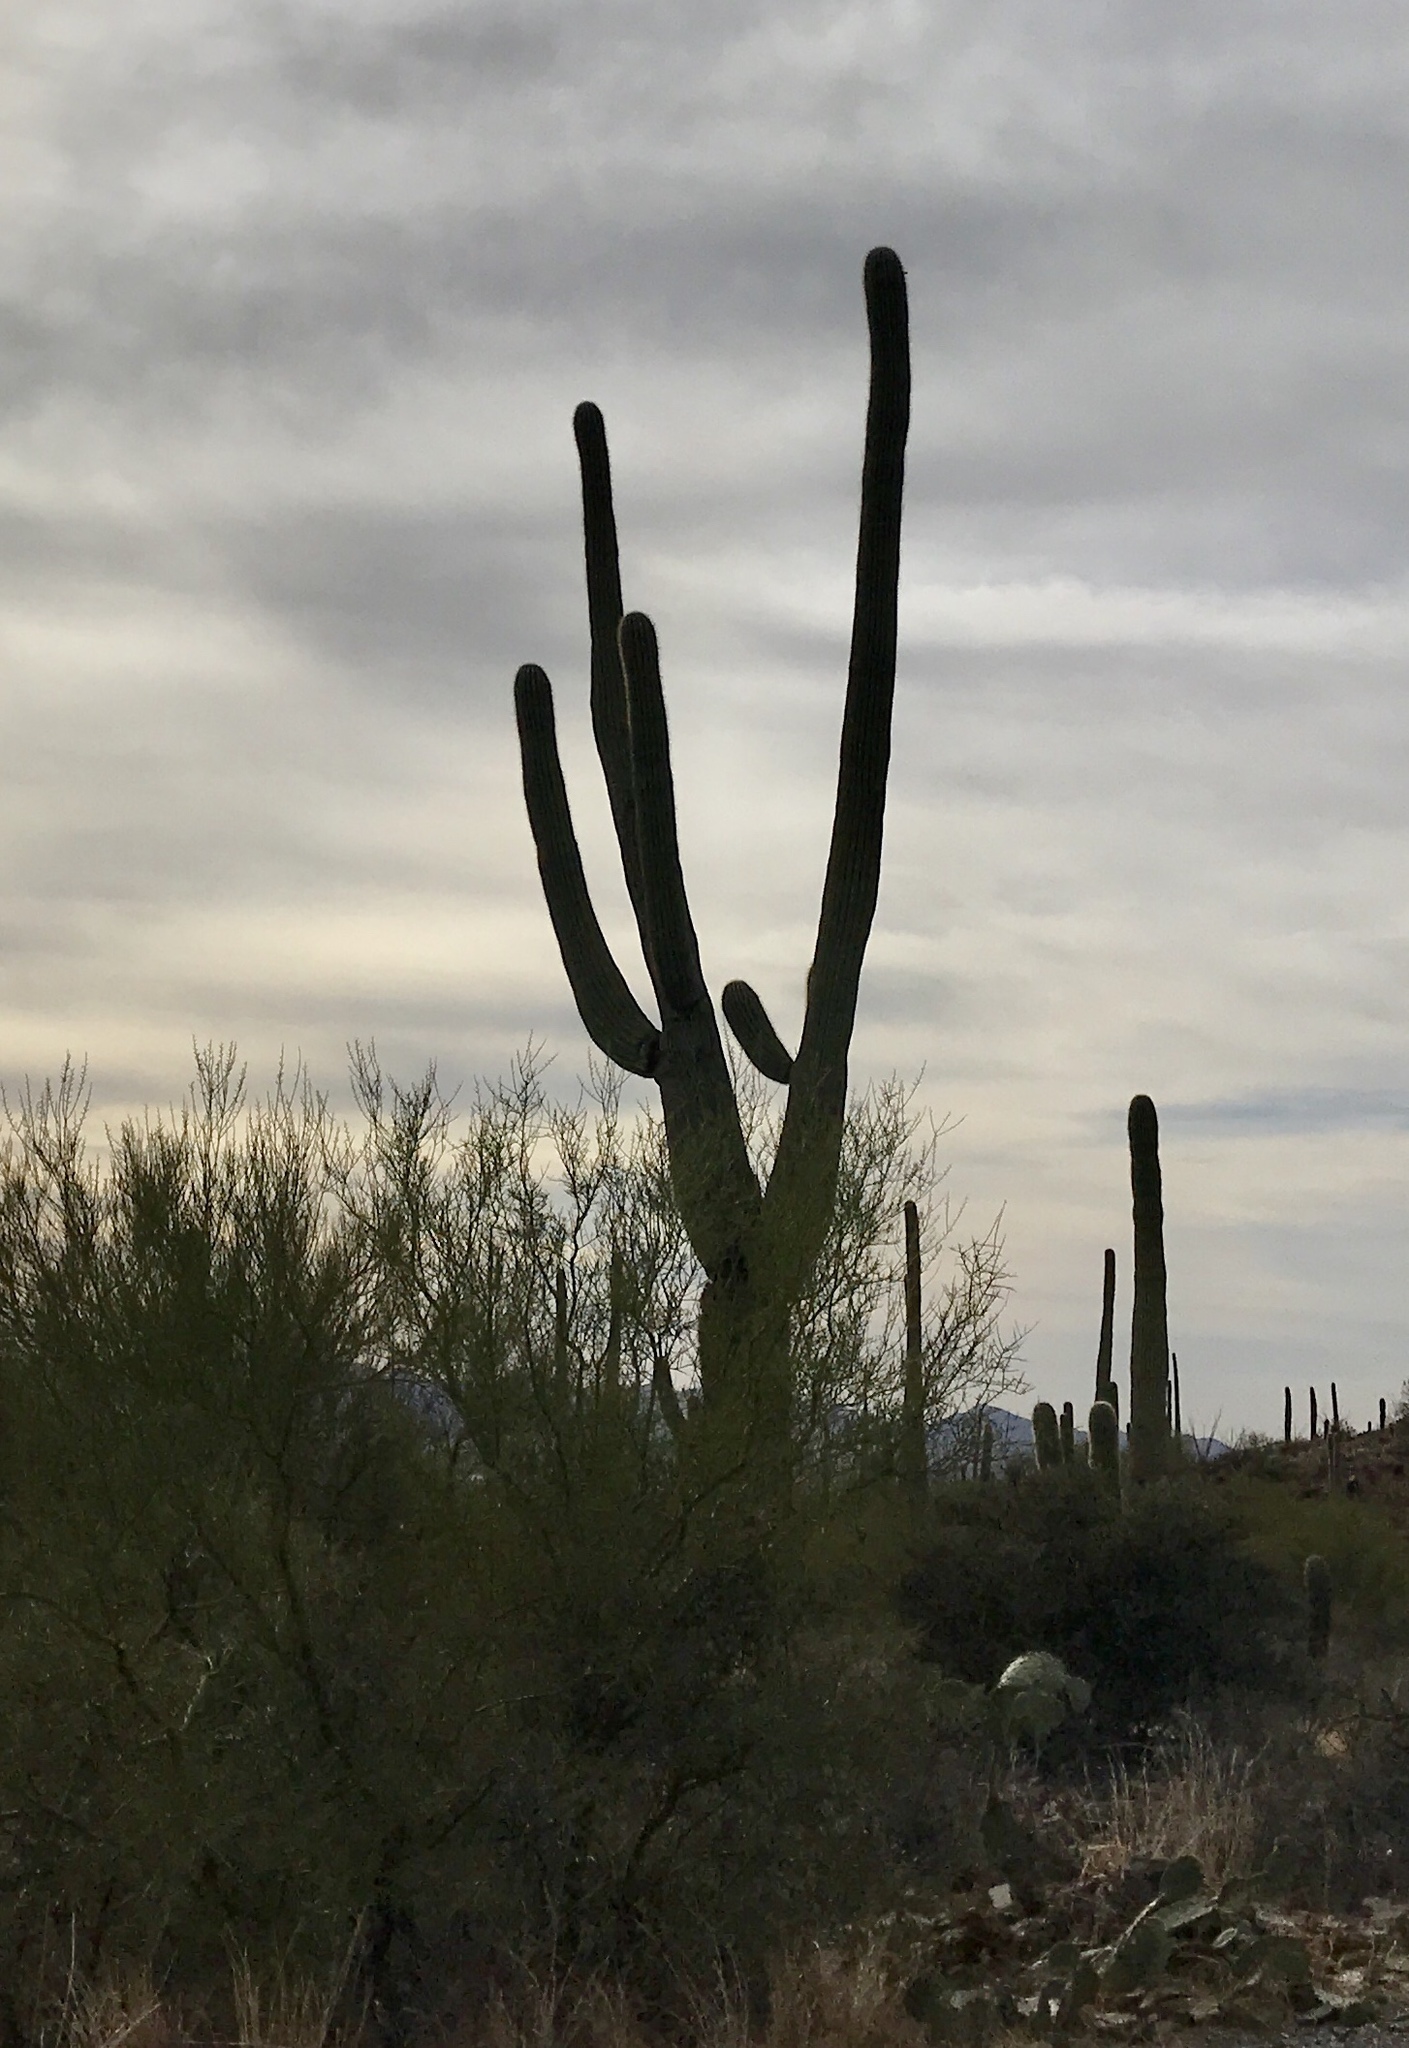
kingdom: Plantae
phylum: Tracheophyta
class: Magnoliopsida
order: Caryophyllales
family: Cactaceae
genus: Carnegiea
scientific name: Carnegiea gigantea
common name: Saguaro
